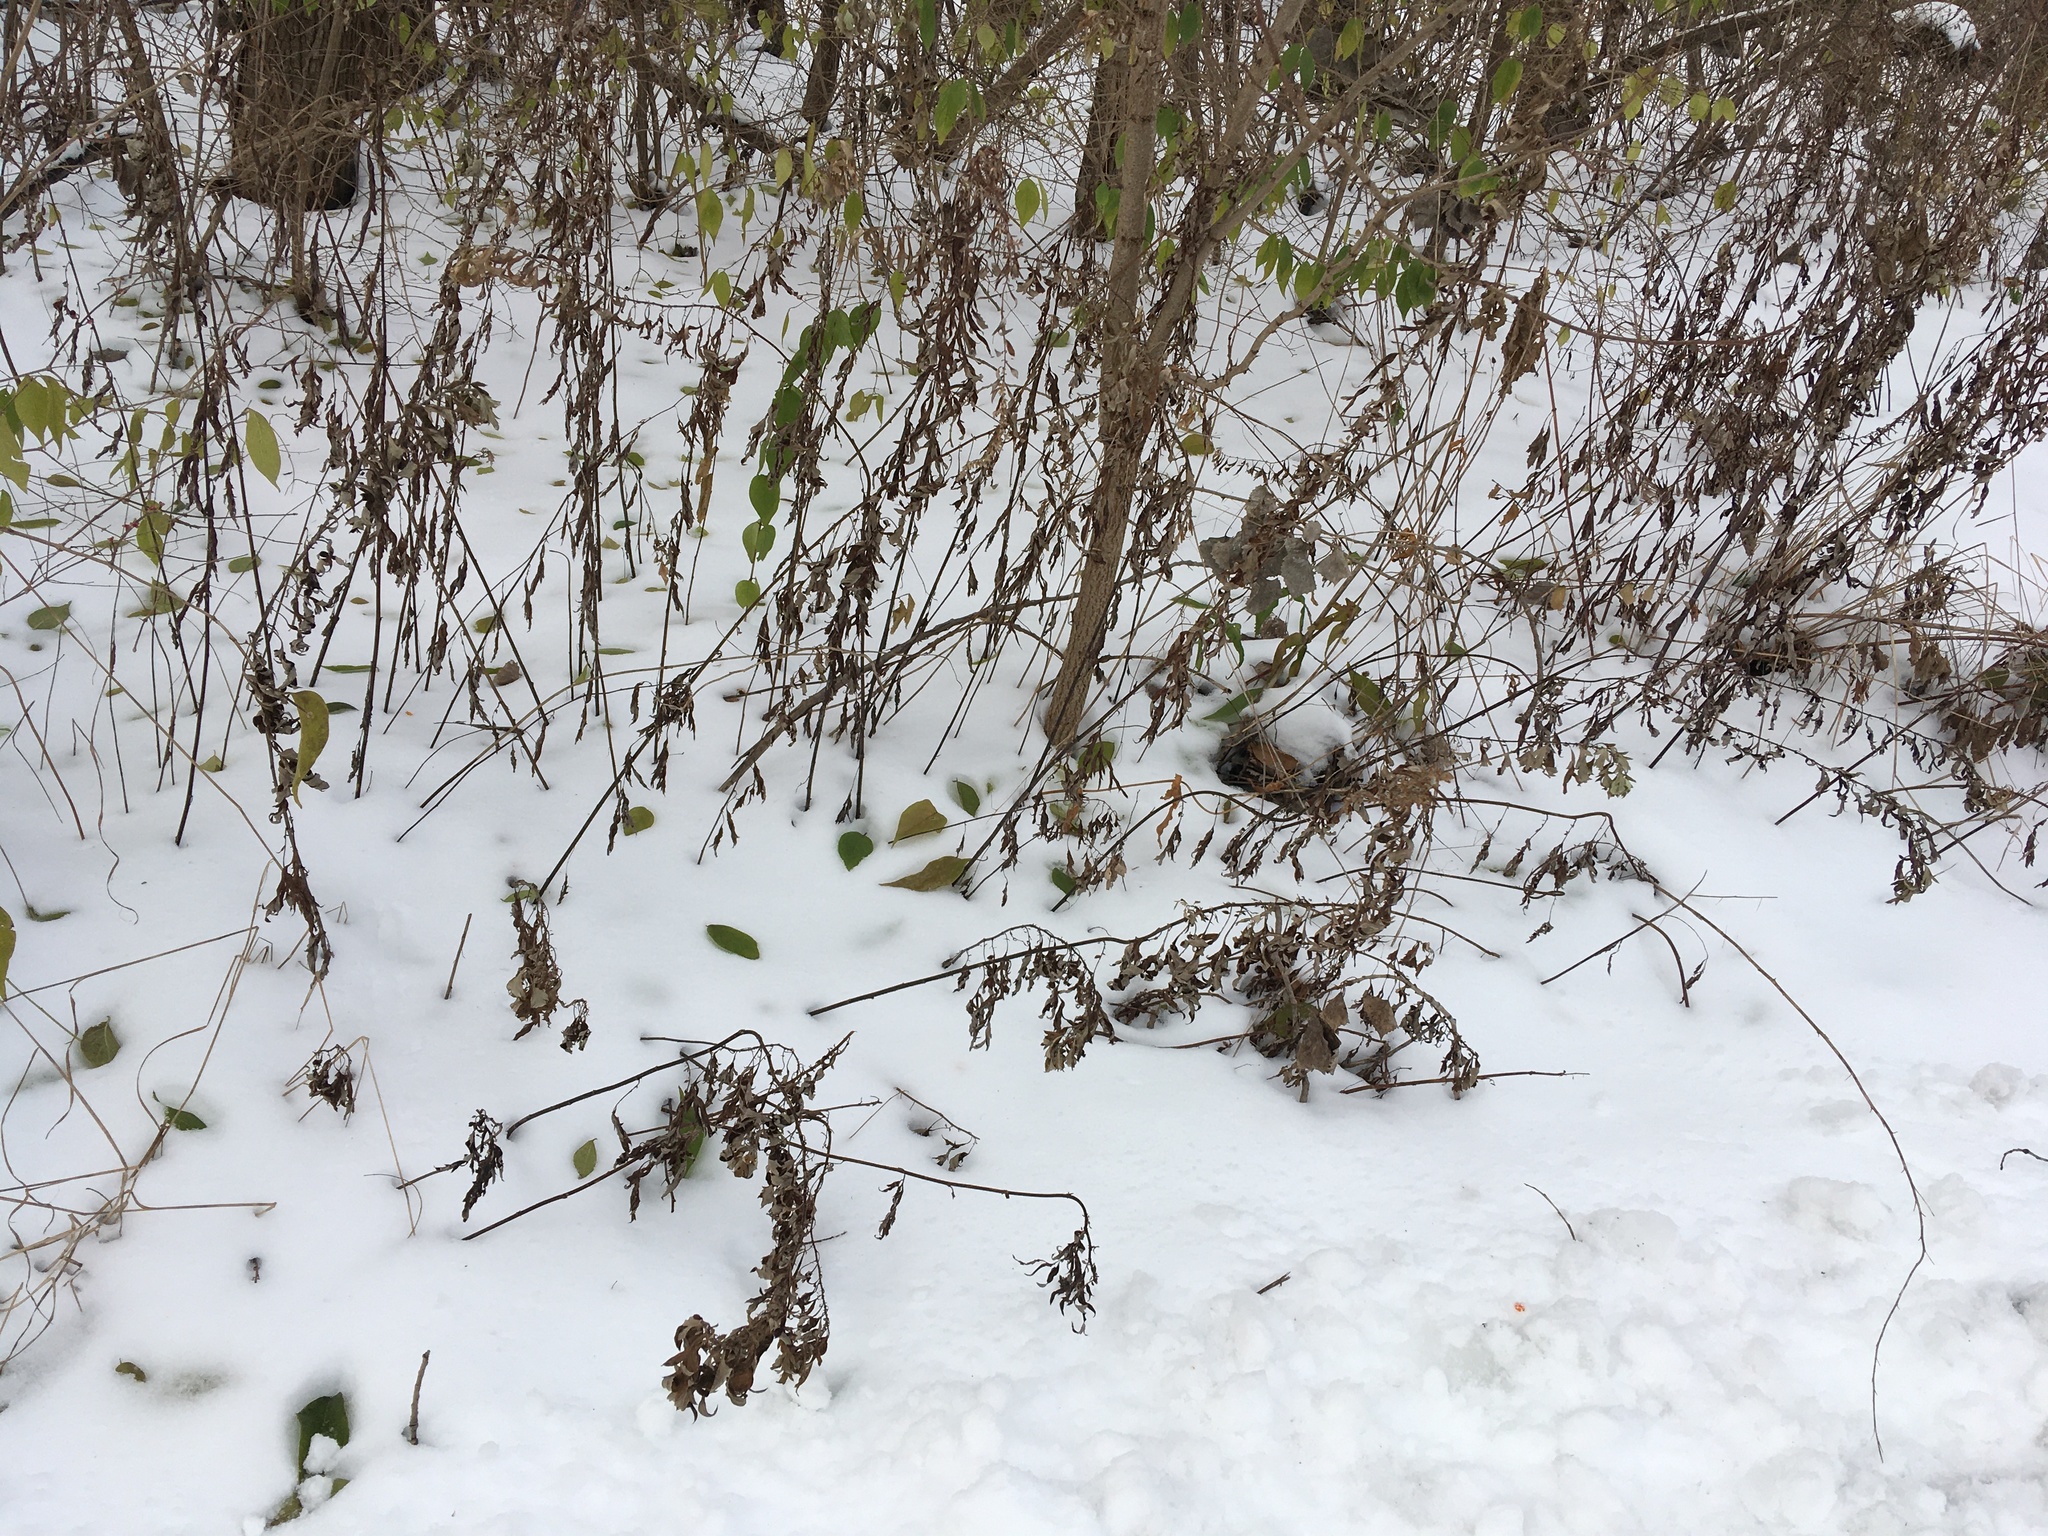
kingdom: Plantae
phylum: Tracheophyta
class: Magnoliopsida
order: Asterales
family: Asteraceae
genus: Artemisia
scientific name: Artemisia vulgaris
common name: Mugwort
